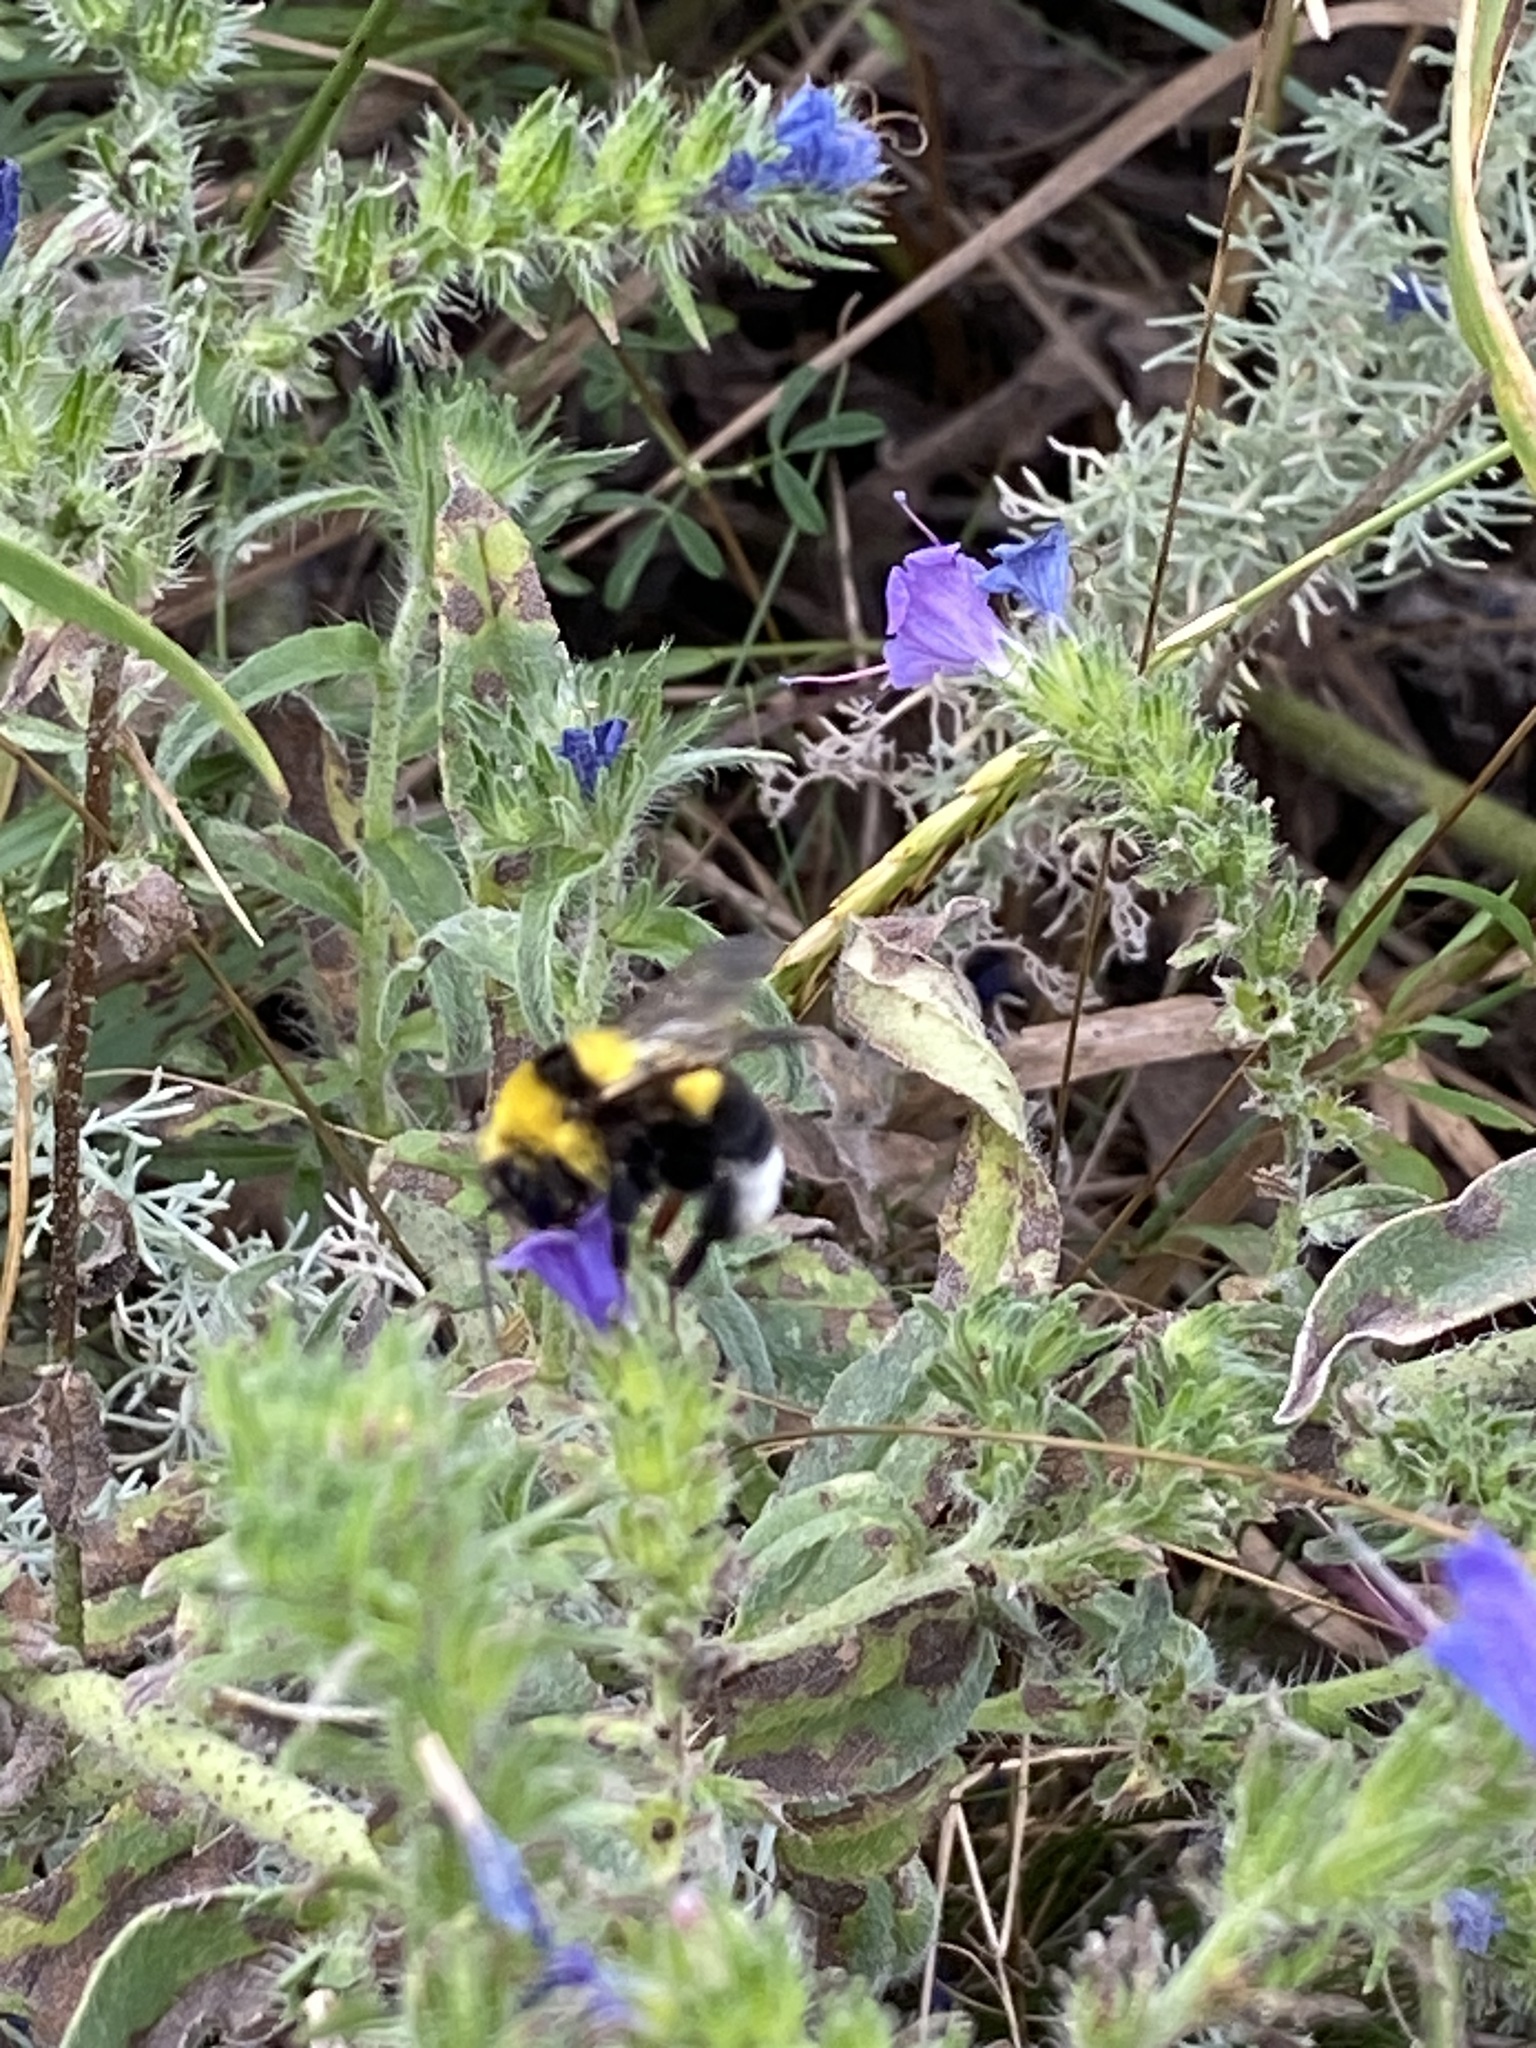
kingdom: Animalia
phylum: Arthropoda
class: Insecta
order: Hymenoptera
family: Apidae
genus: Bombus
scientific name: Bombus argillaceus
